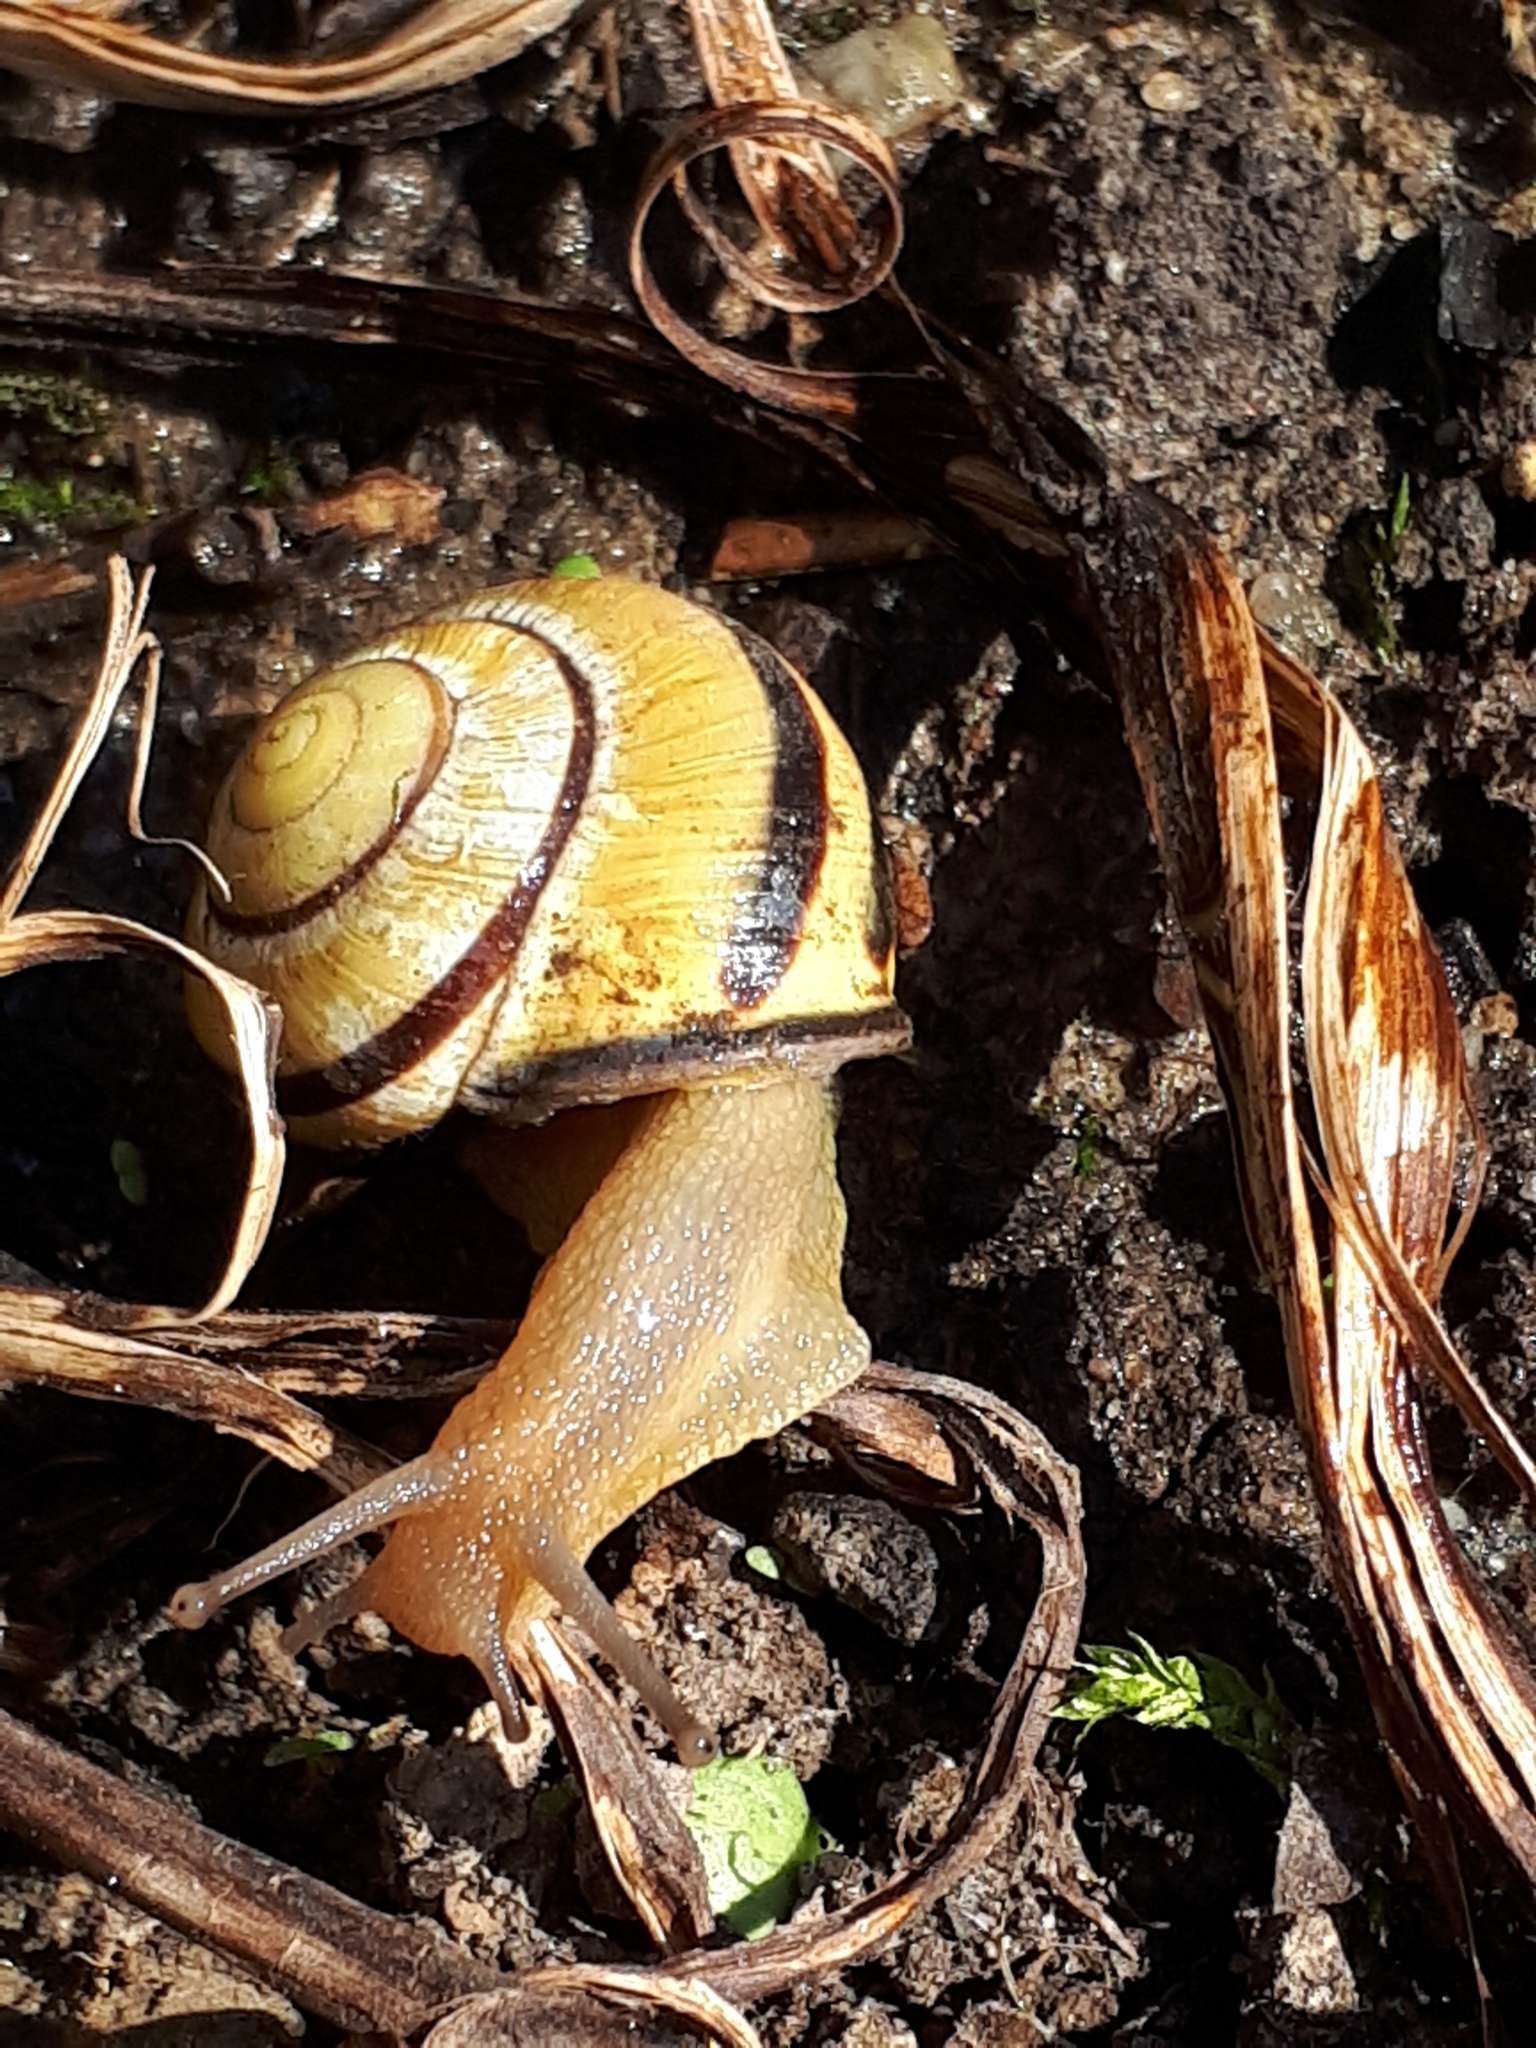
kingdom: Animalia
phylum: Mollusca
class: Gastropoda
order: Stylommatophora
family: Helicidae
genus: Cepaea
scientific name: Cepaea nemoralis
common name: Grovesnail
